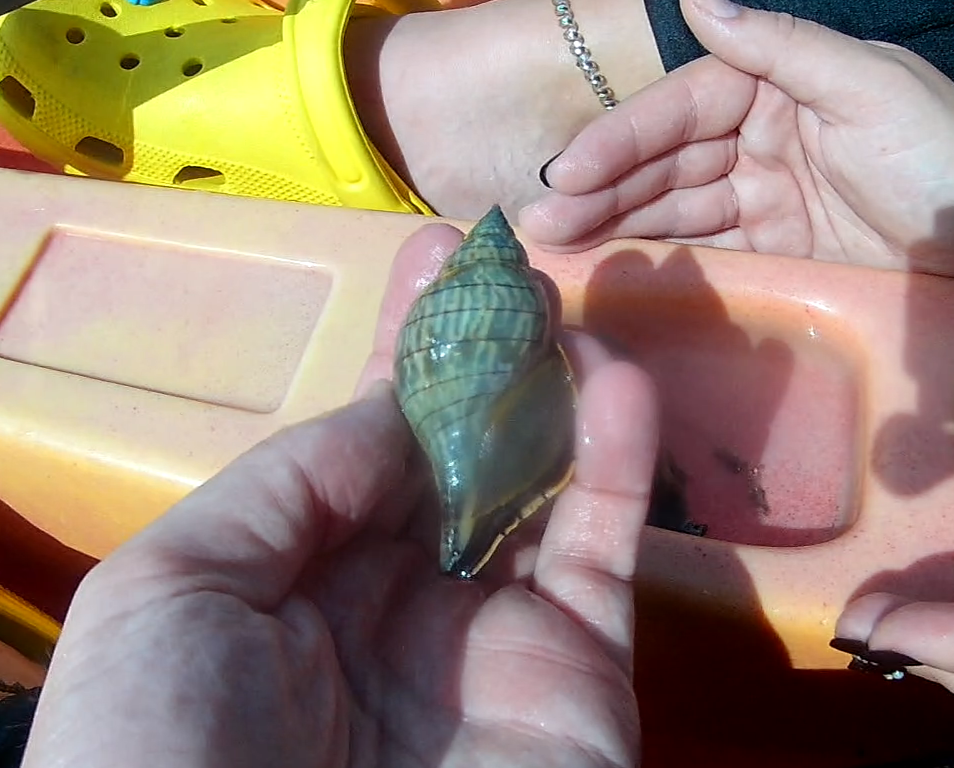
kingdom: Animalia
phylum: Mollusca
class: Gastropoda
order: Neogastropoda
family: Fasciolariidae
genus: Cinctura
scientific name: Cinctura hunteria
